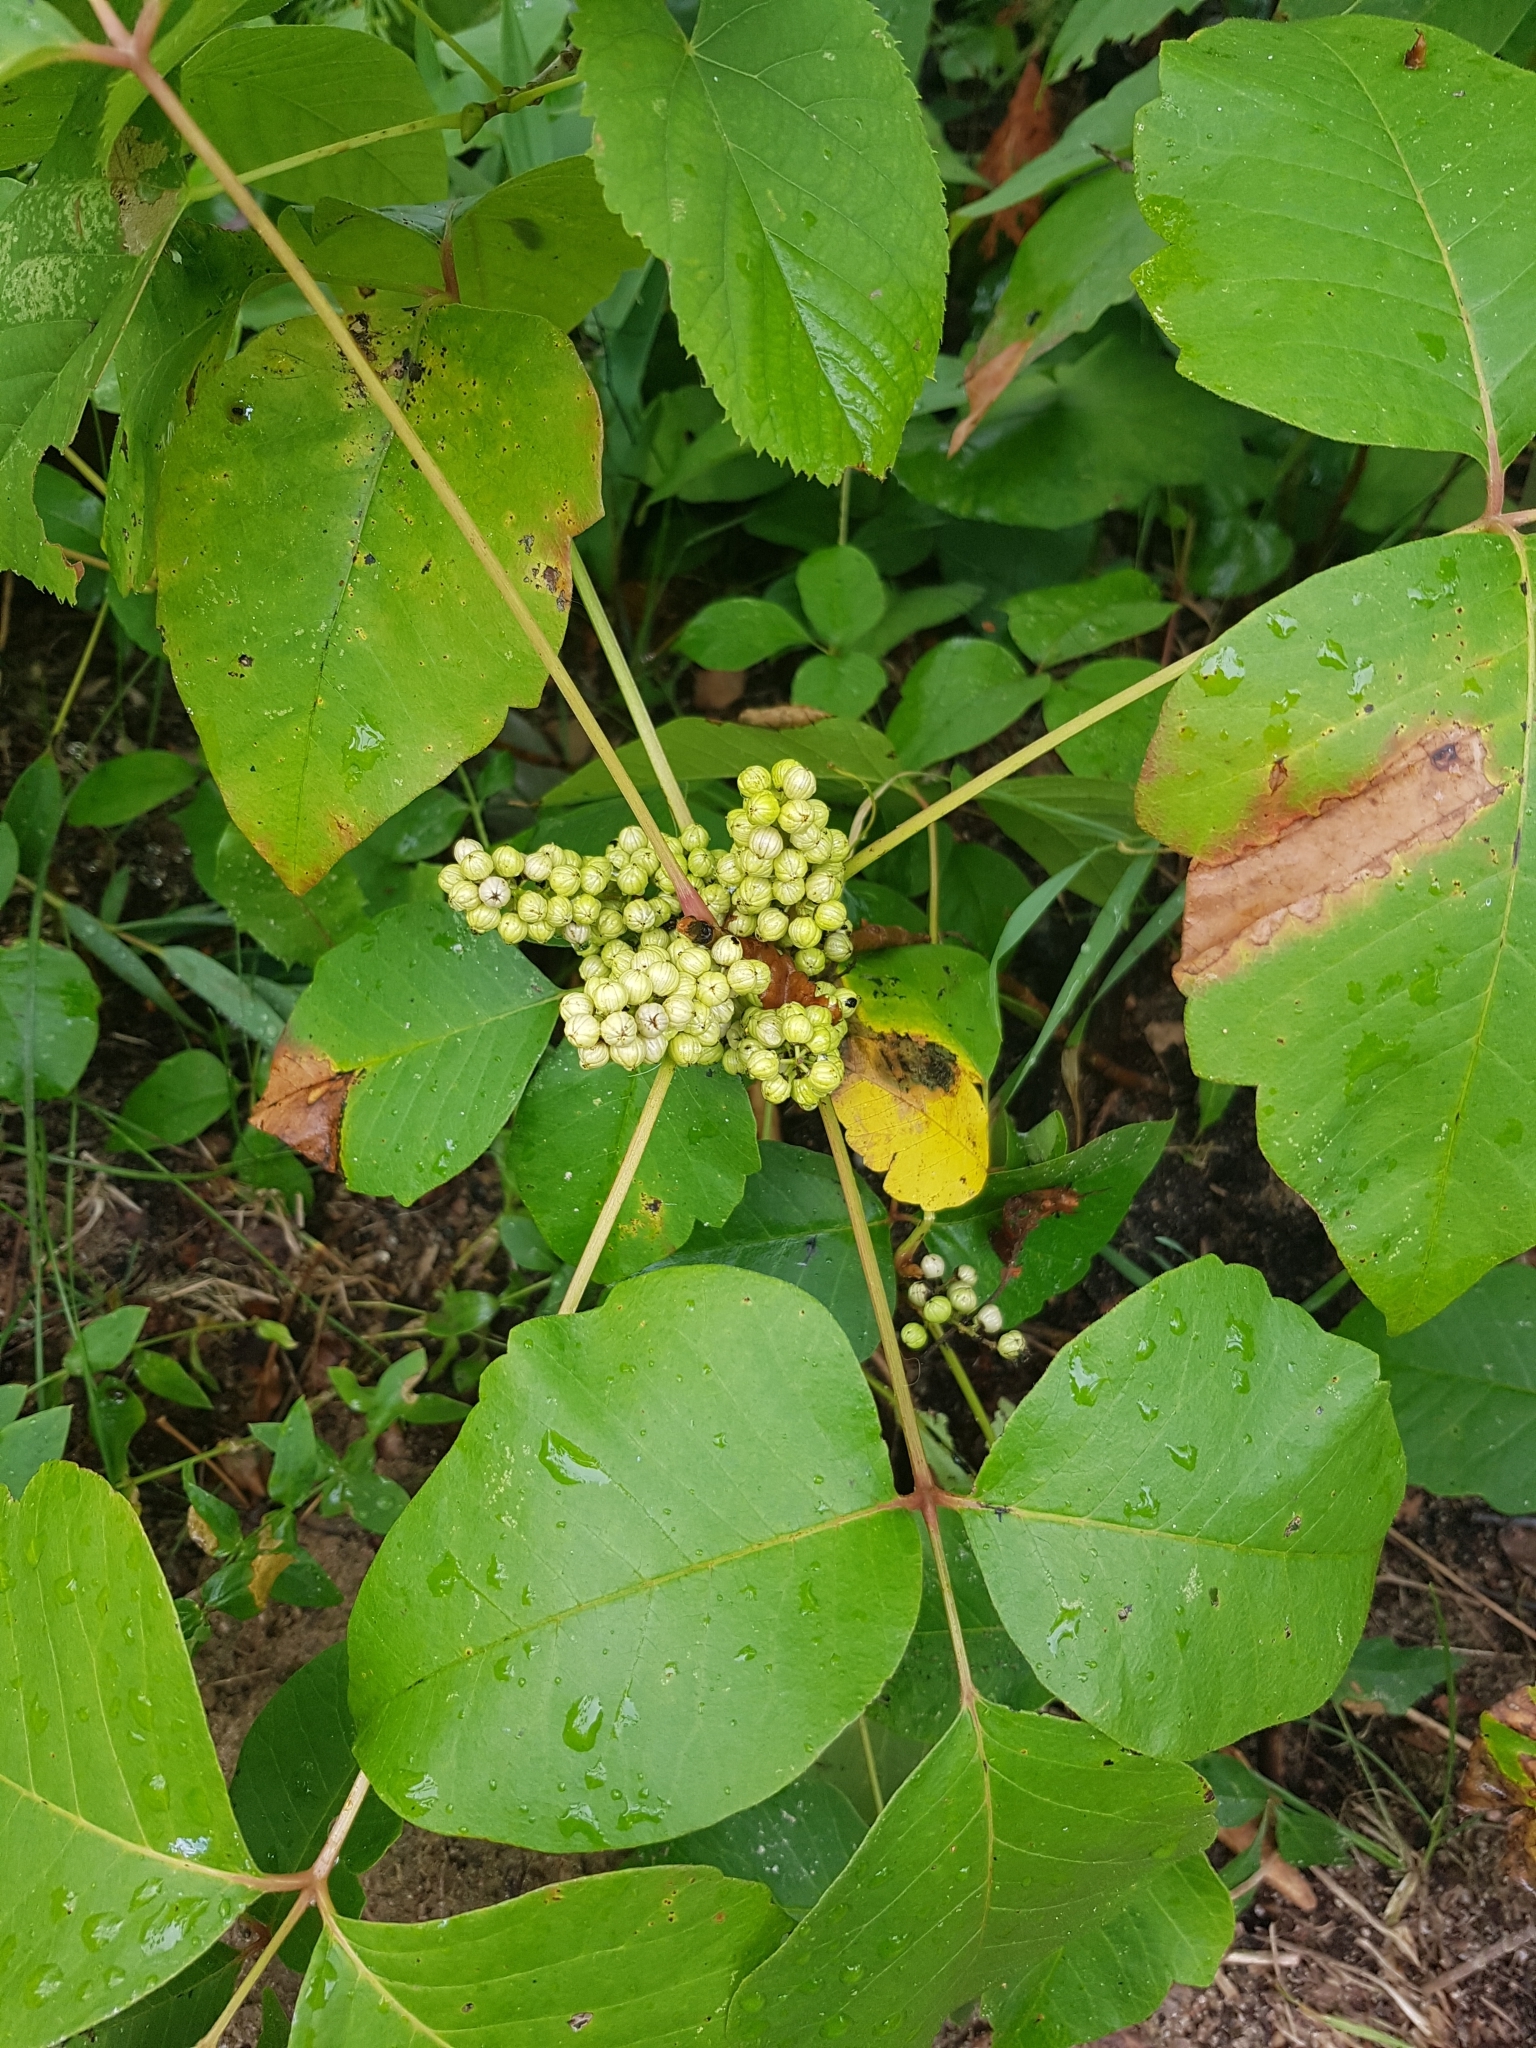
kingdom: Plantae
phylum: Tracheophyta
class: Magnoliopsida
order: Sapindales
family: Anacardiaceae
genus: Toxicodendron
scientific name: Toxicodendron rydbergii
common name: Rydberg's poison-ivy
